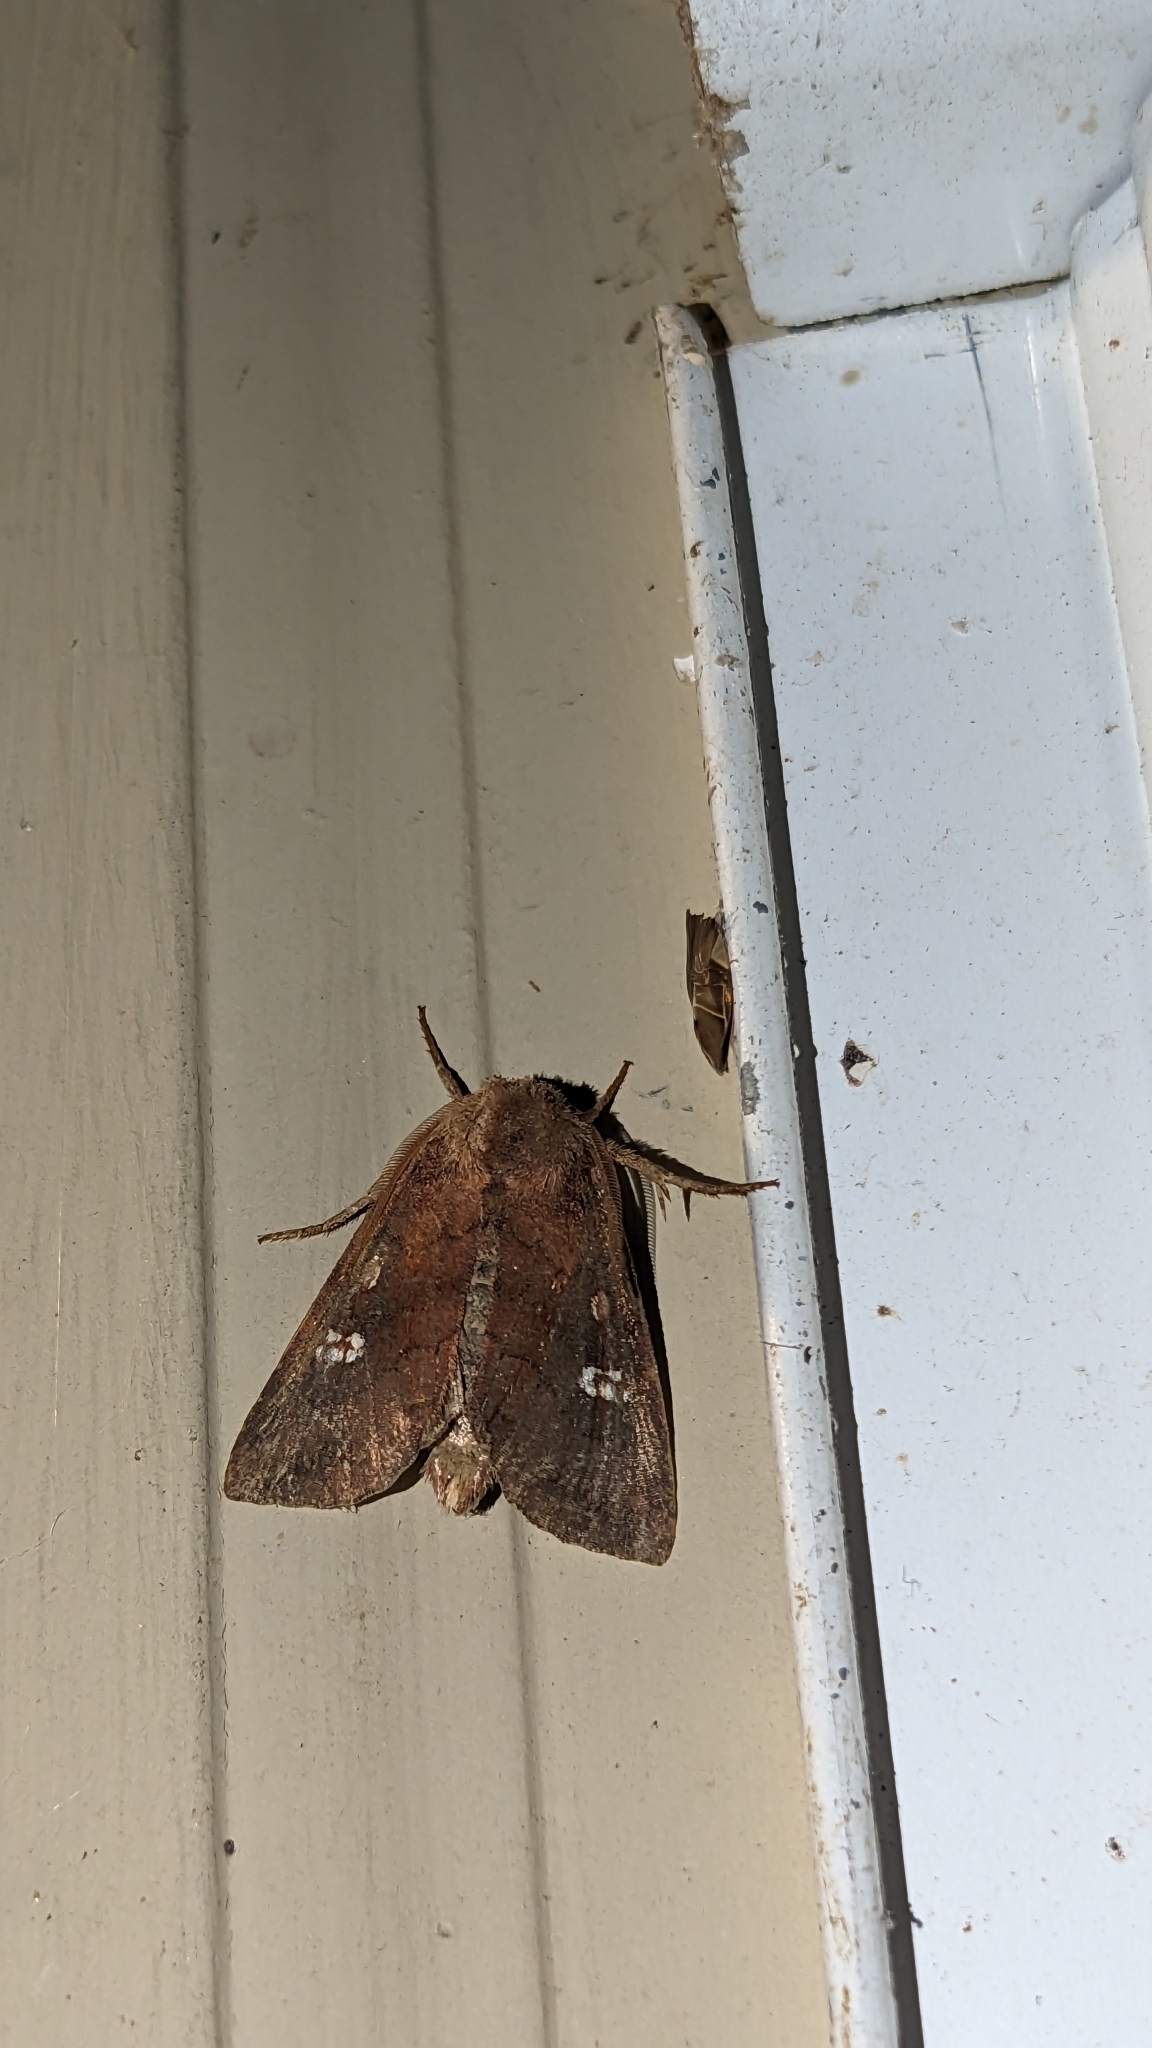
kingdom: Animalia
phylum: Arthropoda
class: Insecta
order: Lepidoptera
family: Noctuidae
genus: Tricholita
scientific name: Tricholita signata
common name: Signate quaker
